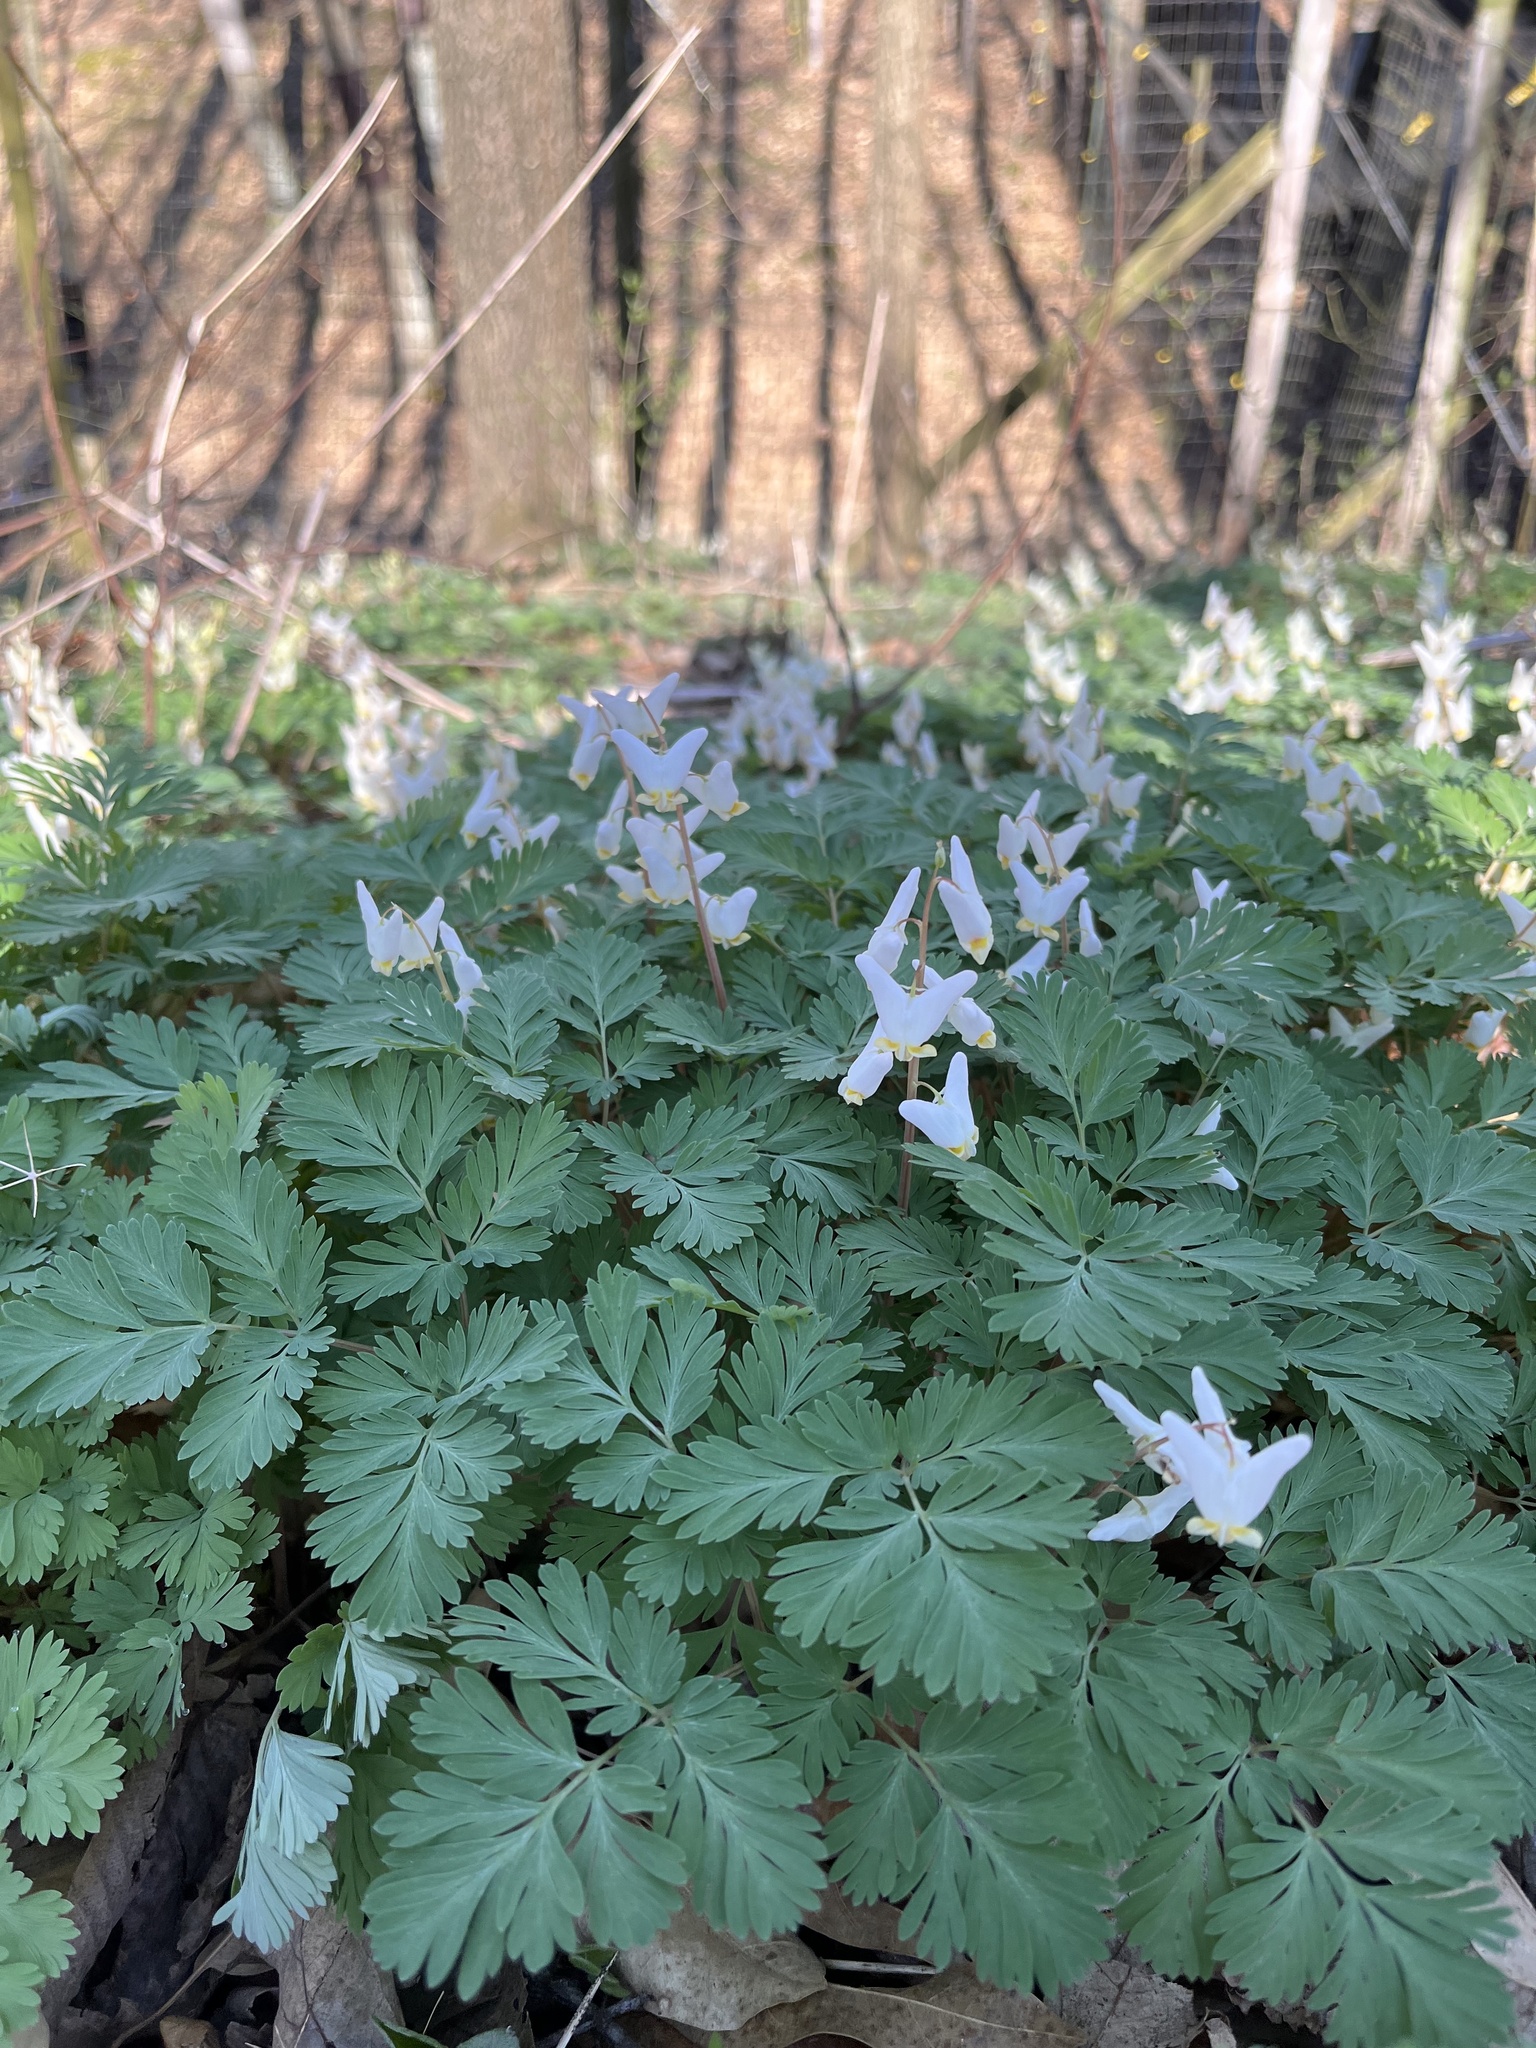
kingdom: Plantae
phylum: Tracheophyta
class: Magnoliopsida
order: Ranunculales
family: Papaveraceae
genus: Dicentra
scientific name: Dicentra cucullaria
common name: Dutchman's breeches
